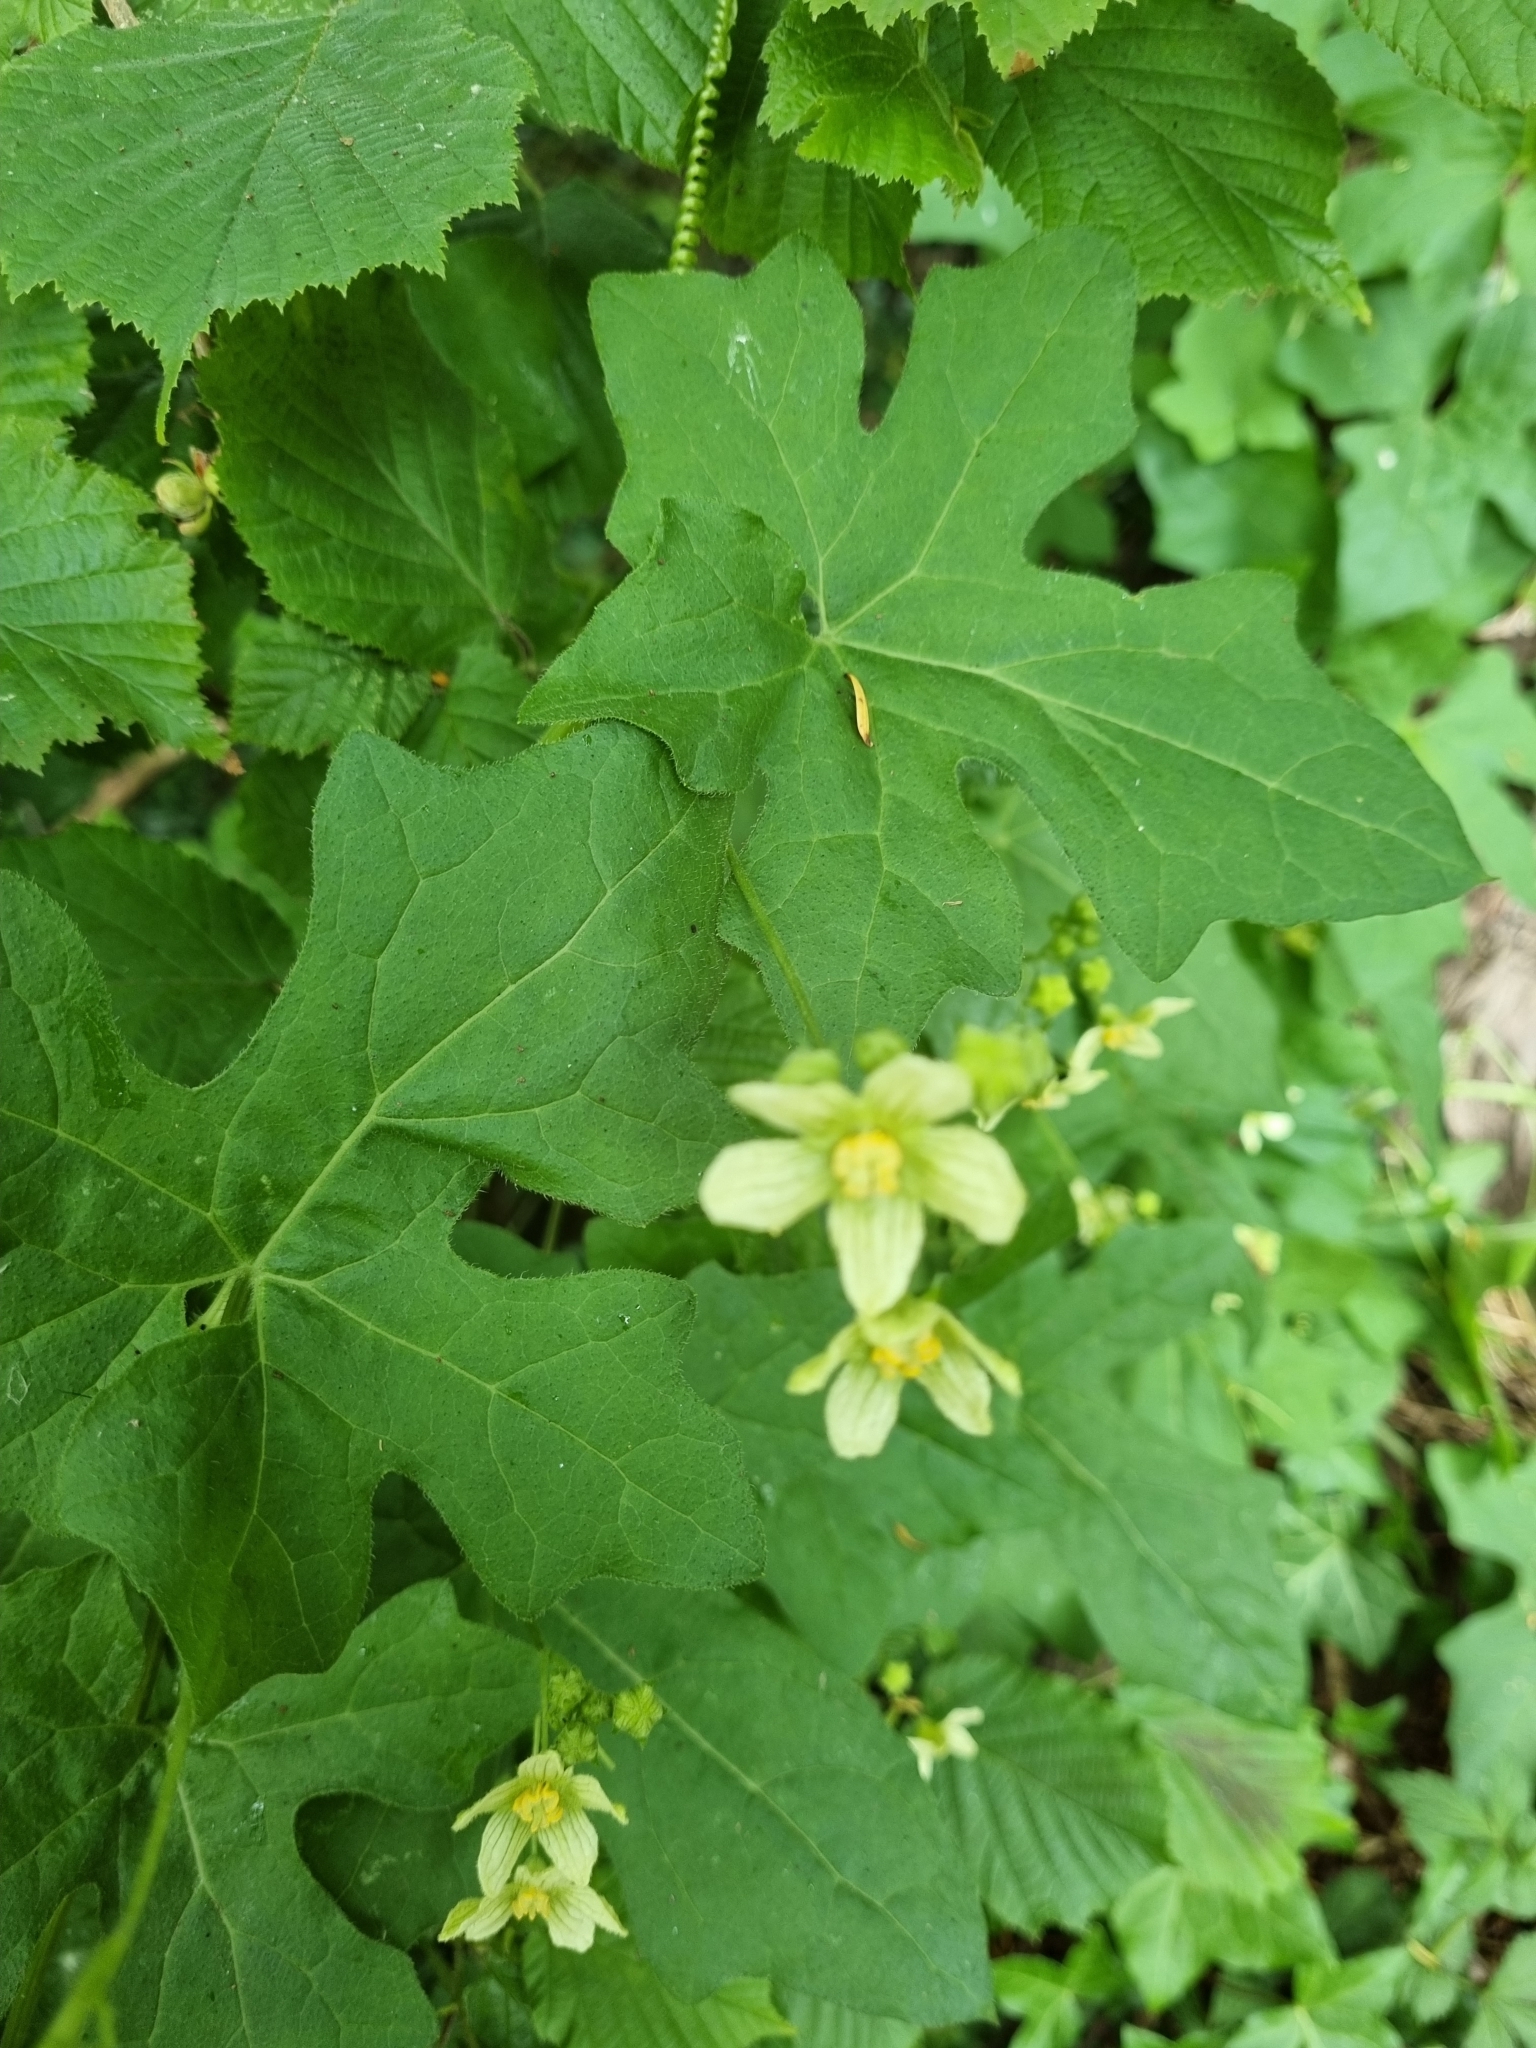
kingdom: Plantae
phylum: Tracheophyta
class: Magnoliopsida
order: Cucurbitales
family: Cucurbitaceae
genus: Bryonia
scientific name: Bryonia cretica
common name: Cretan bryony
